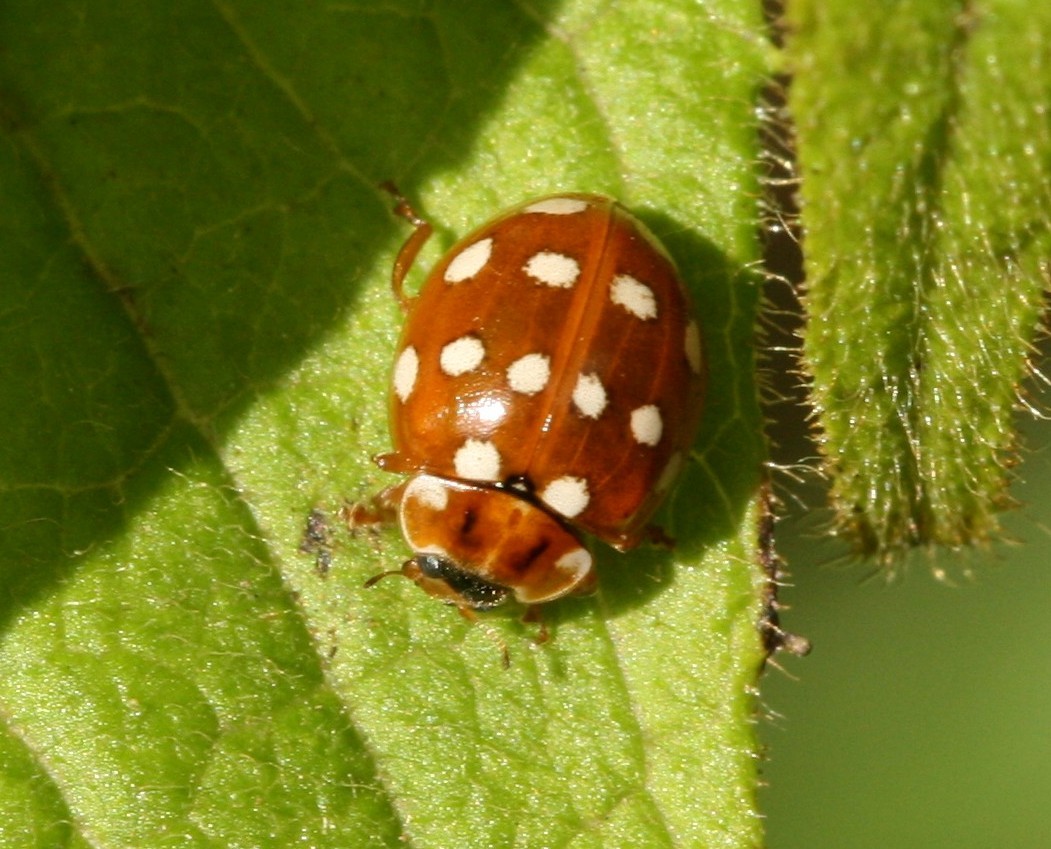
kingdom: Animalia
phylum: Arthropoda
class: Insecta
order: Coleoptera
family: Coccinellidae
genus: Calvia
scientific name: Calvia quatuordecimguttata
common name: Cream-spot ladybird
